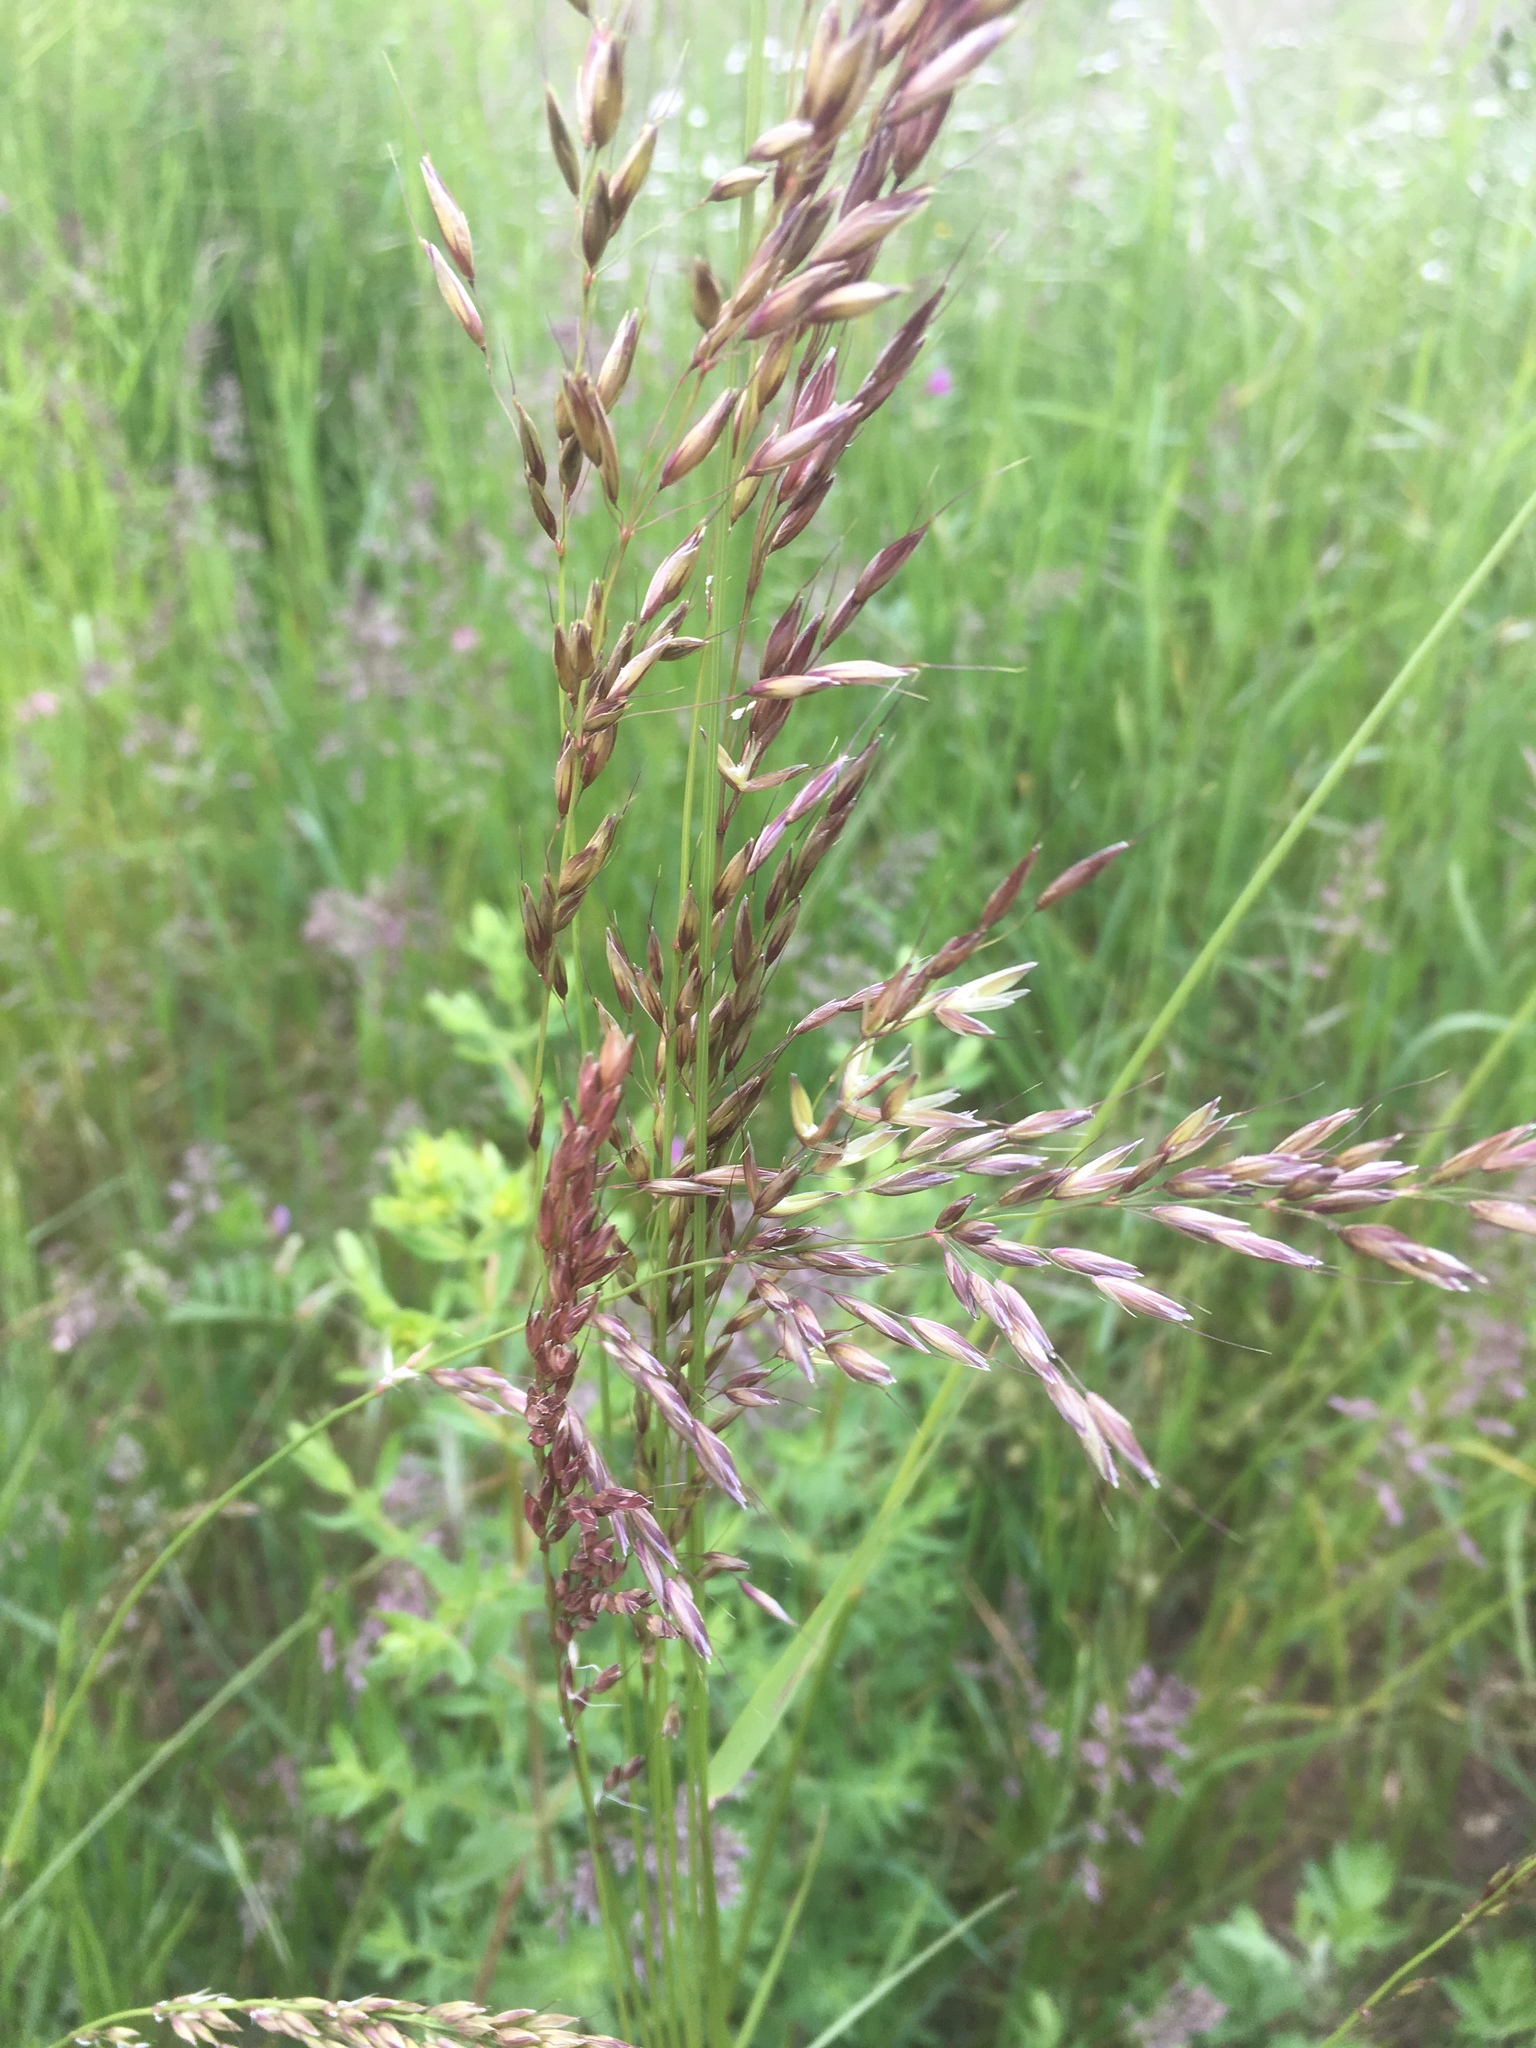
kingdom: Plantae
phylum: Tracheophyta
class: Liliopsida
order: Poales
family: Poaceae
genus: Arrhenatherum
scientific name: Arrhenatherum elatius
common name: Tall oatgrass
